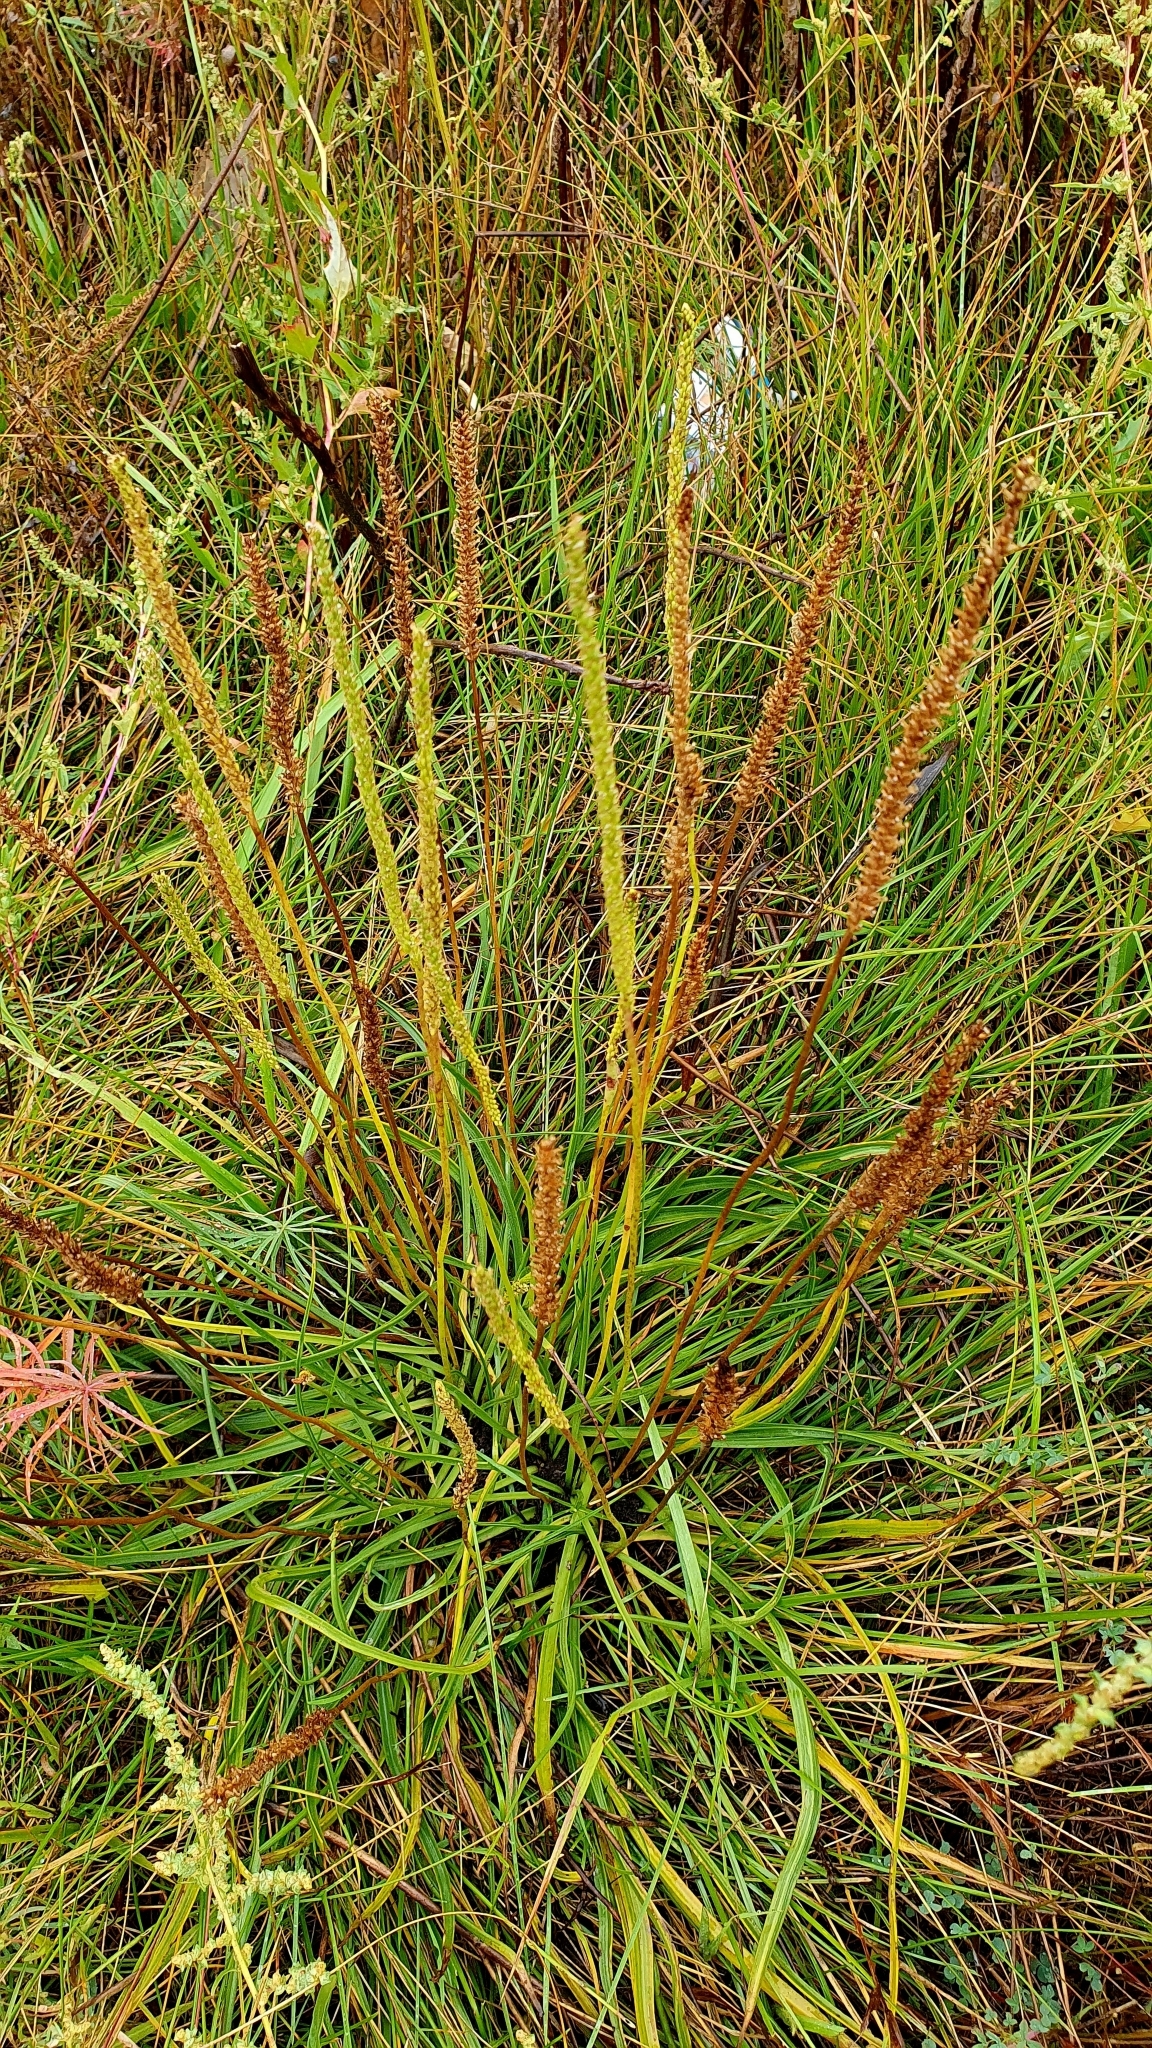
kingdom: Plantae
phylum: Tracheophyta
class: Magnoliopsida
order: Lamiales
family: Plantaginaceae
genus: Plantago
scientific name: Plantago salsa
